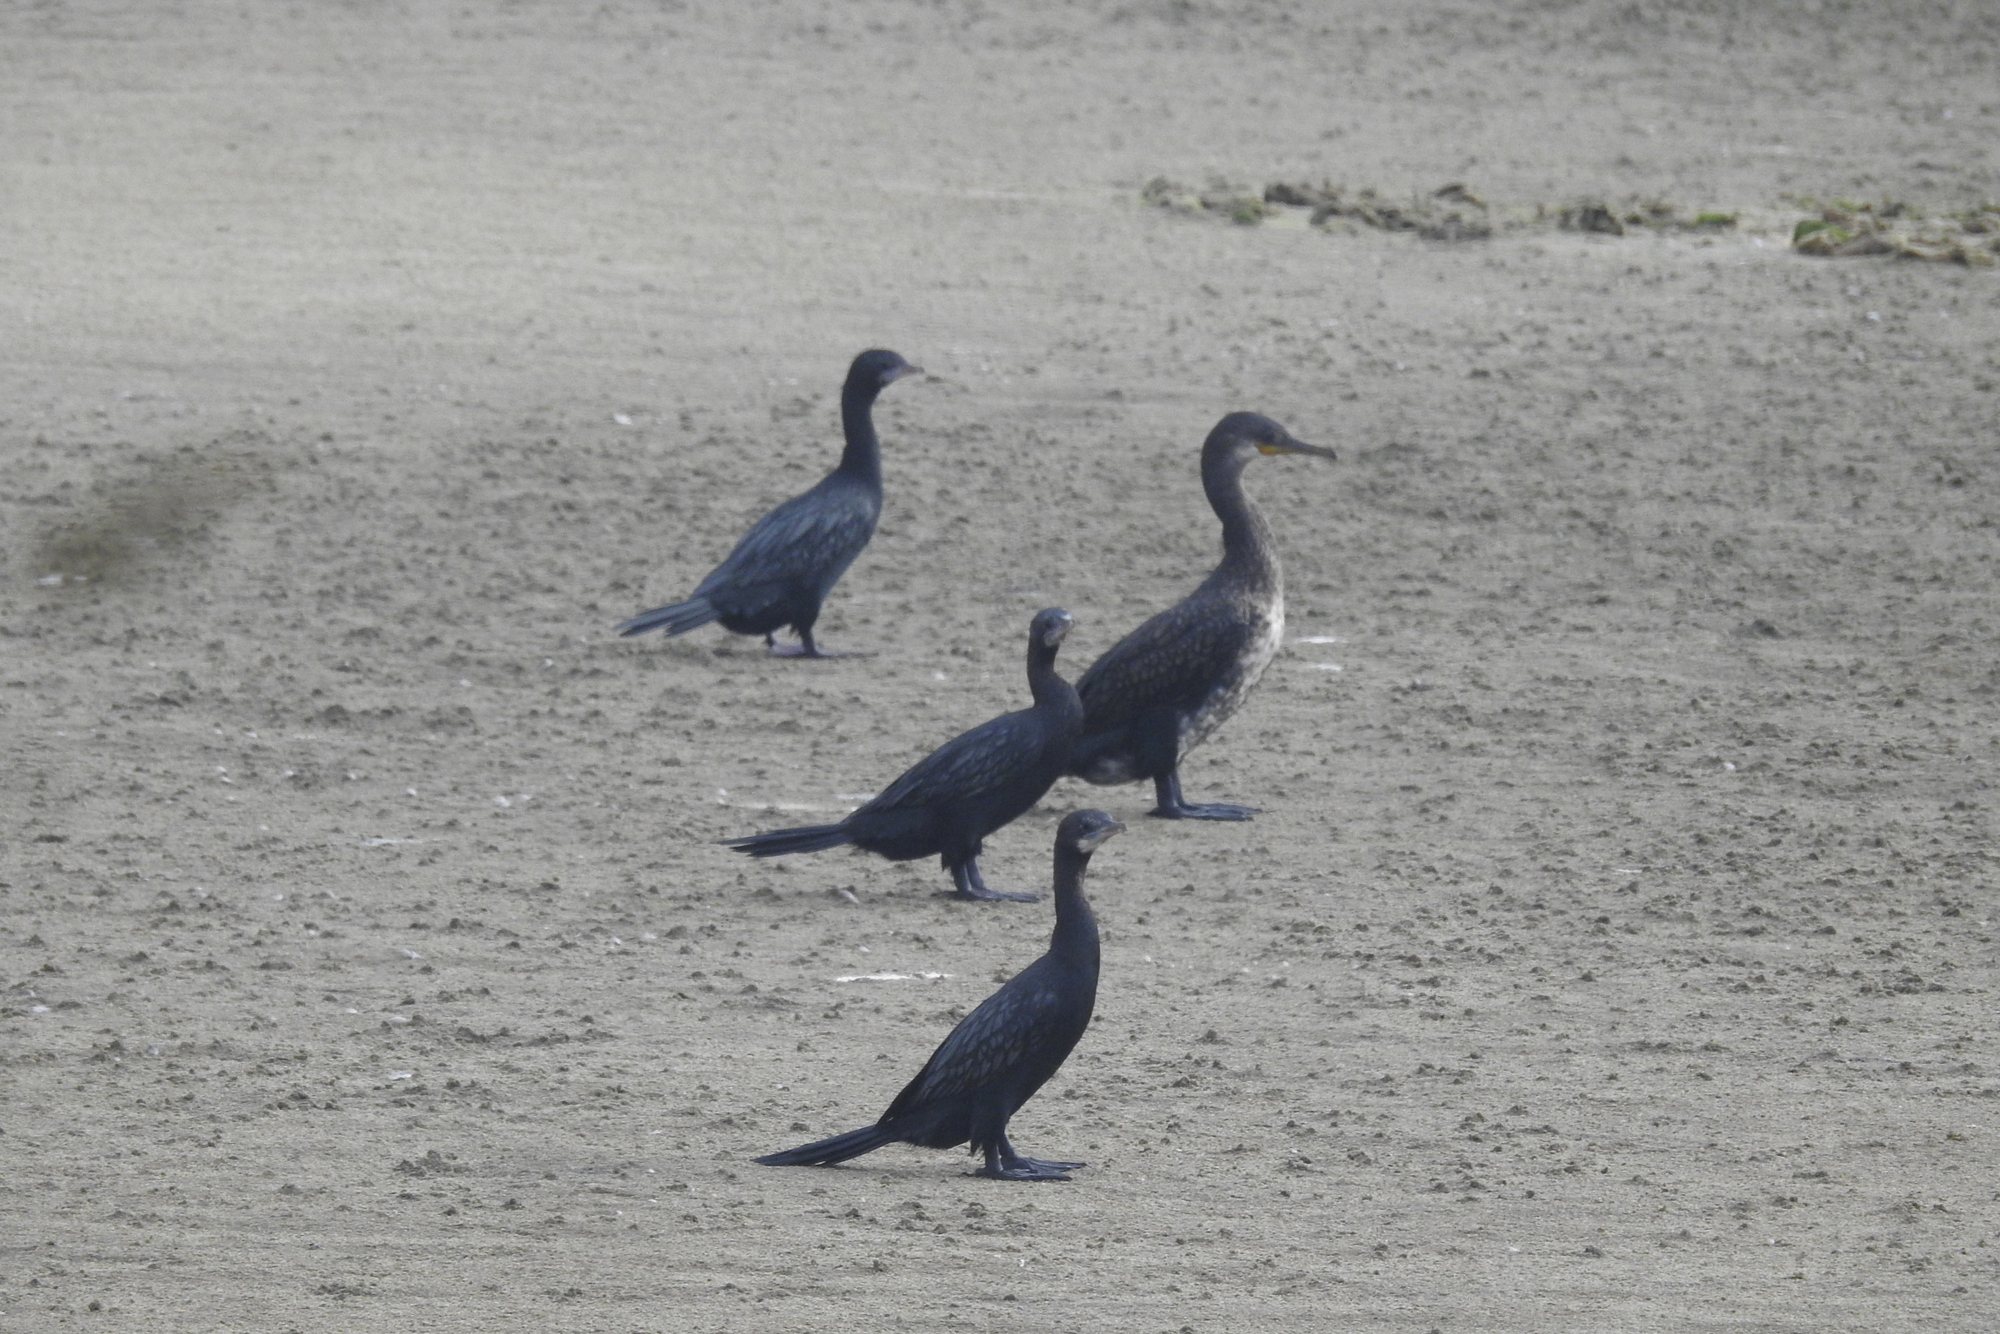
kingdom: Animalia
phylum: Chordata
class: Aves
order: Suliformes
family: Phalacrocoracidae
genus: Microcarbo
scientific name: Microcarbo niger
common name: Little cormorant
